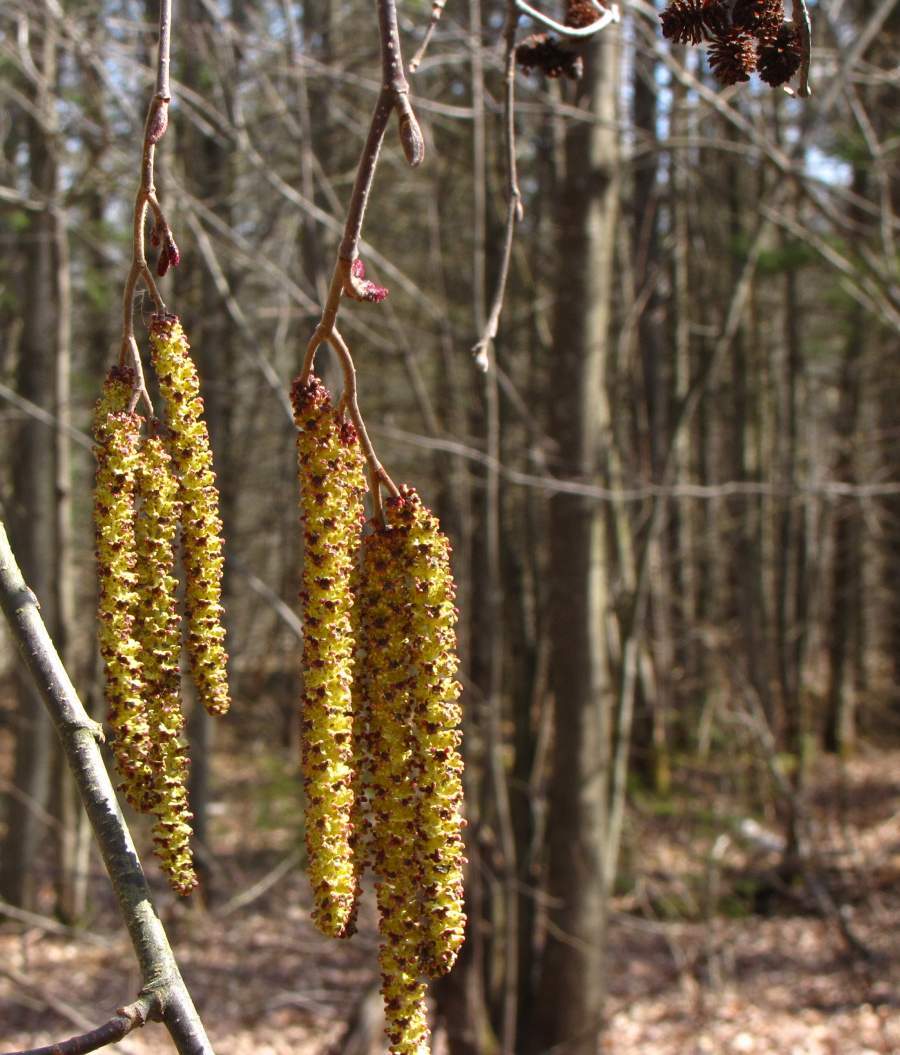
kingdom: Plantae
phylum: Tracheophyta
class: Magnoliopsida
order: Fagales
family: Betulaceae
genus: Alnus
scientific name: Alnus incana
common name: Grey alder
